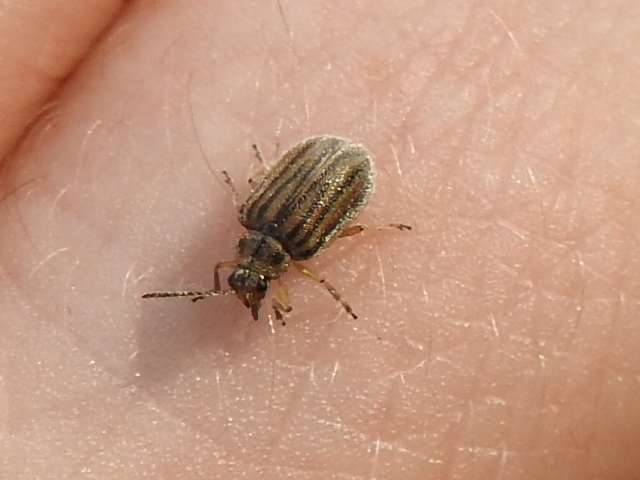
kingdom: Animalia
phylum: Arthropoda
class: Insecta
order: Coleoptera
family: Chrysomelidae
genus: Ophraella
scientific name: Ophraella communa
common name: Ragweed leaf beetle
